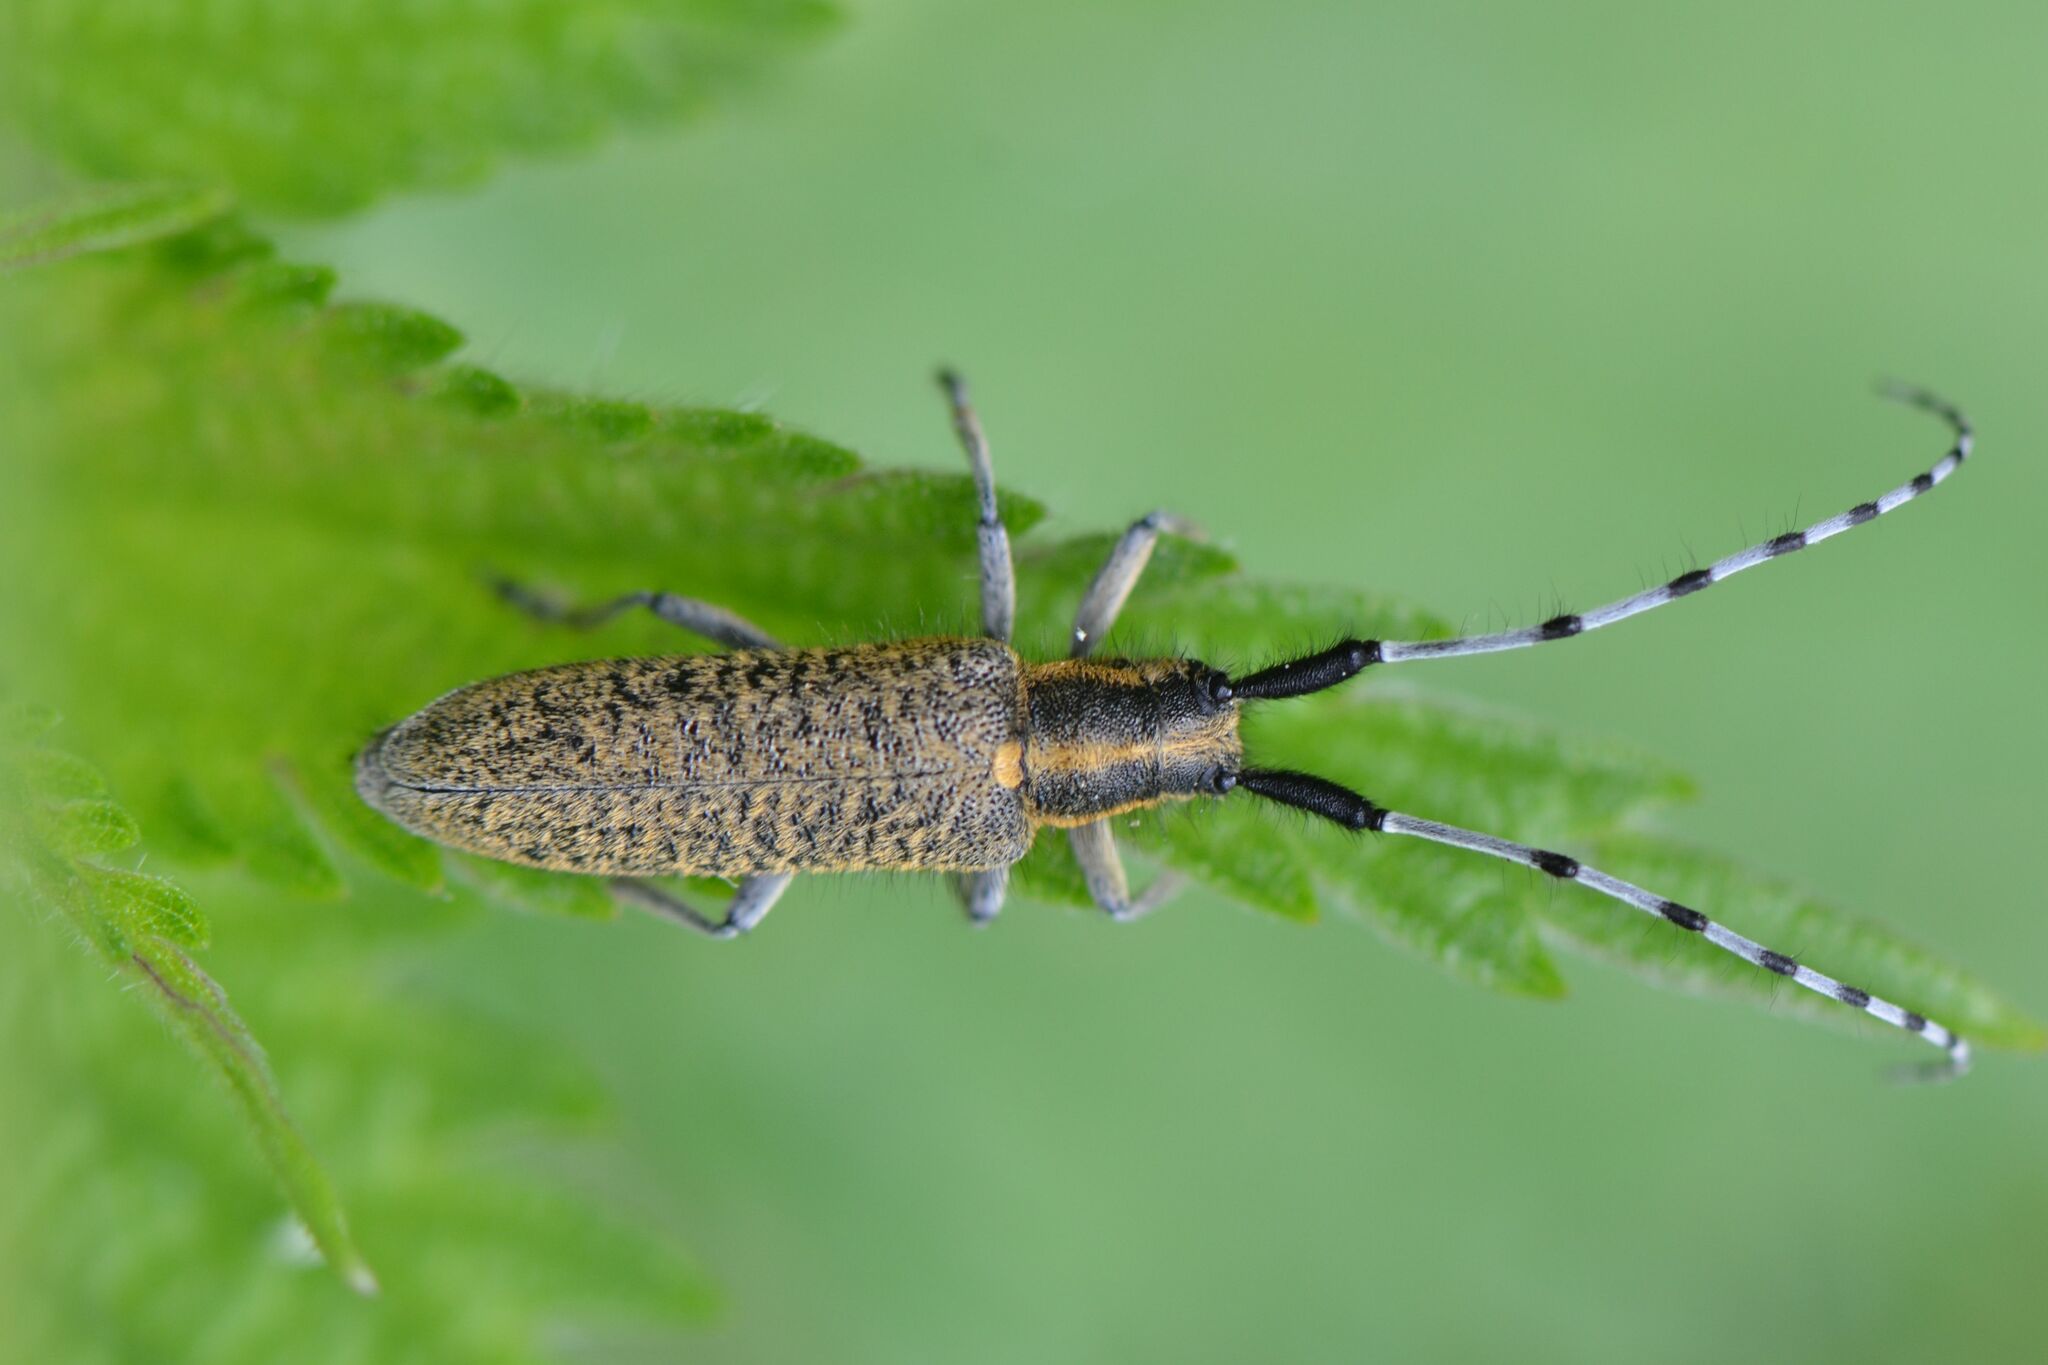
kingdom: Animalia
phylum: Arthropoda
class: Insecta
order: Coleoptera
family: Cerambycidae
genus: Agapanthia
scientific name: Agapanthia villosoviridescens
